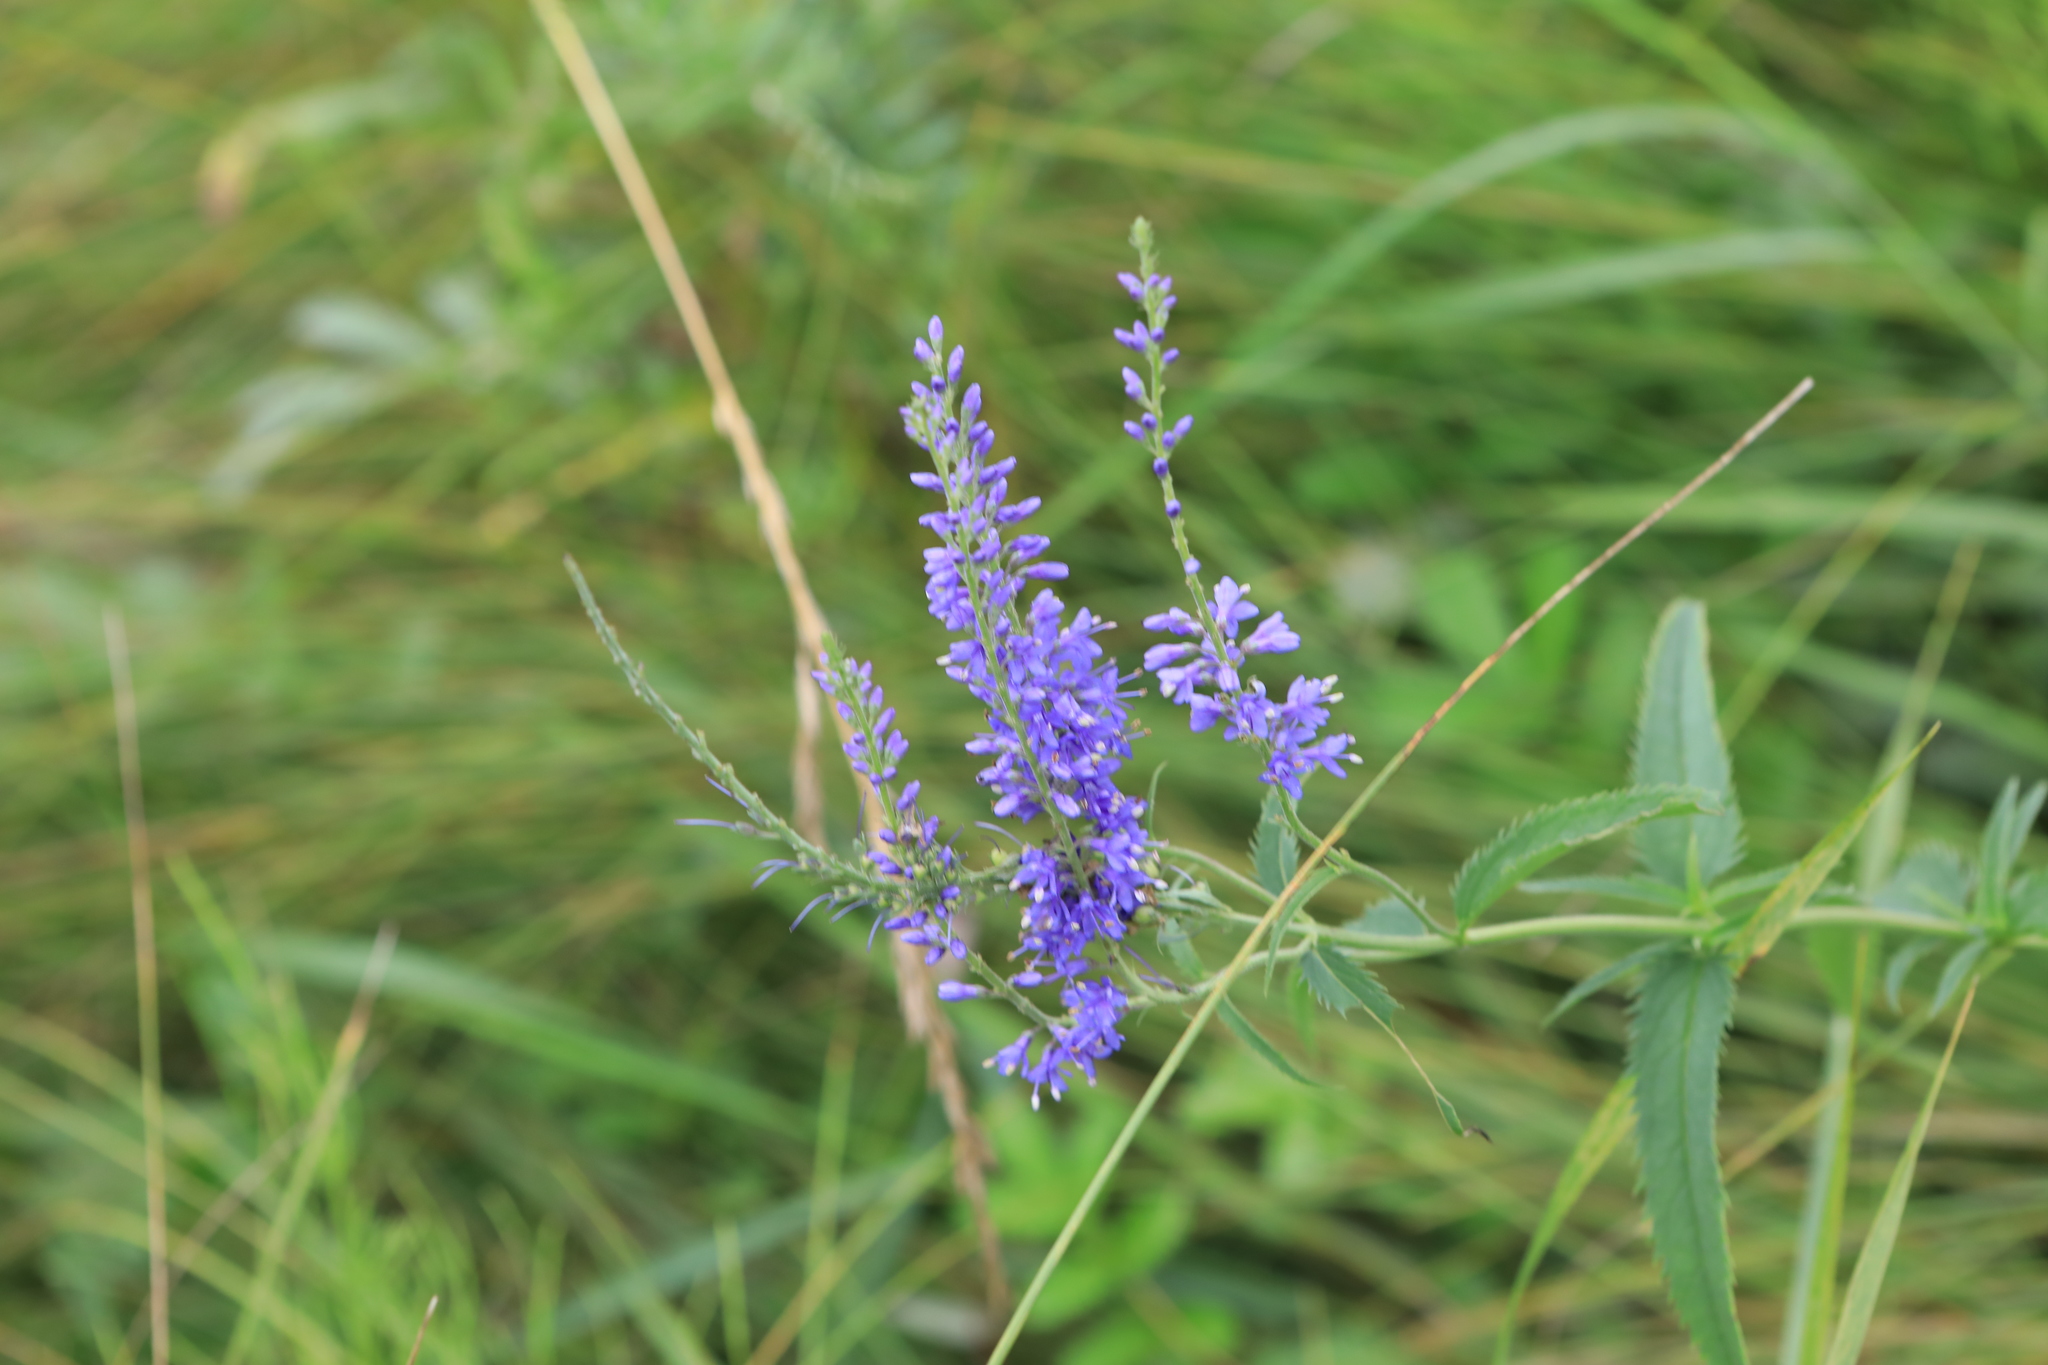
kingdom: Plantae
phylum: Tracheophyta
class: Magnoliopsida
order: Lamiales
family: Plantaginaceae
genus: Veronica
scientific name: Veronica longifolia
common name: Garden speedwell
